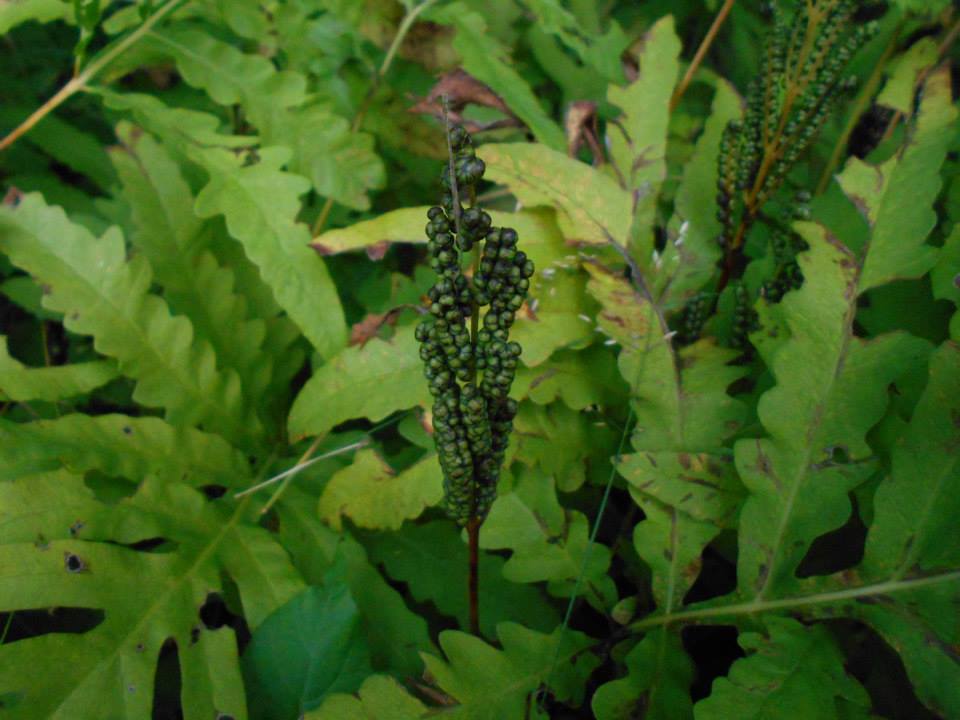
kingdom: Plantae
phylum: Tracheophyta
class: Polypodiopsida
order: Polypodiales
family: Onocleaceae
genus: Onoclea
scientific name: Onoclea sensibilis
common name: Sensitive fern
